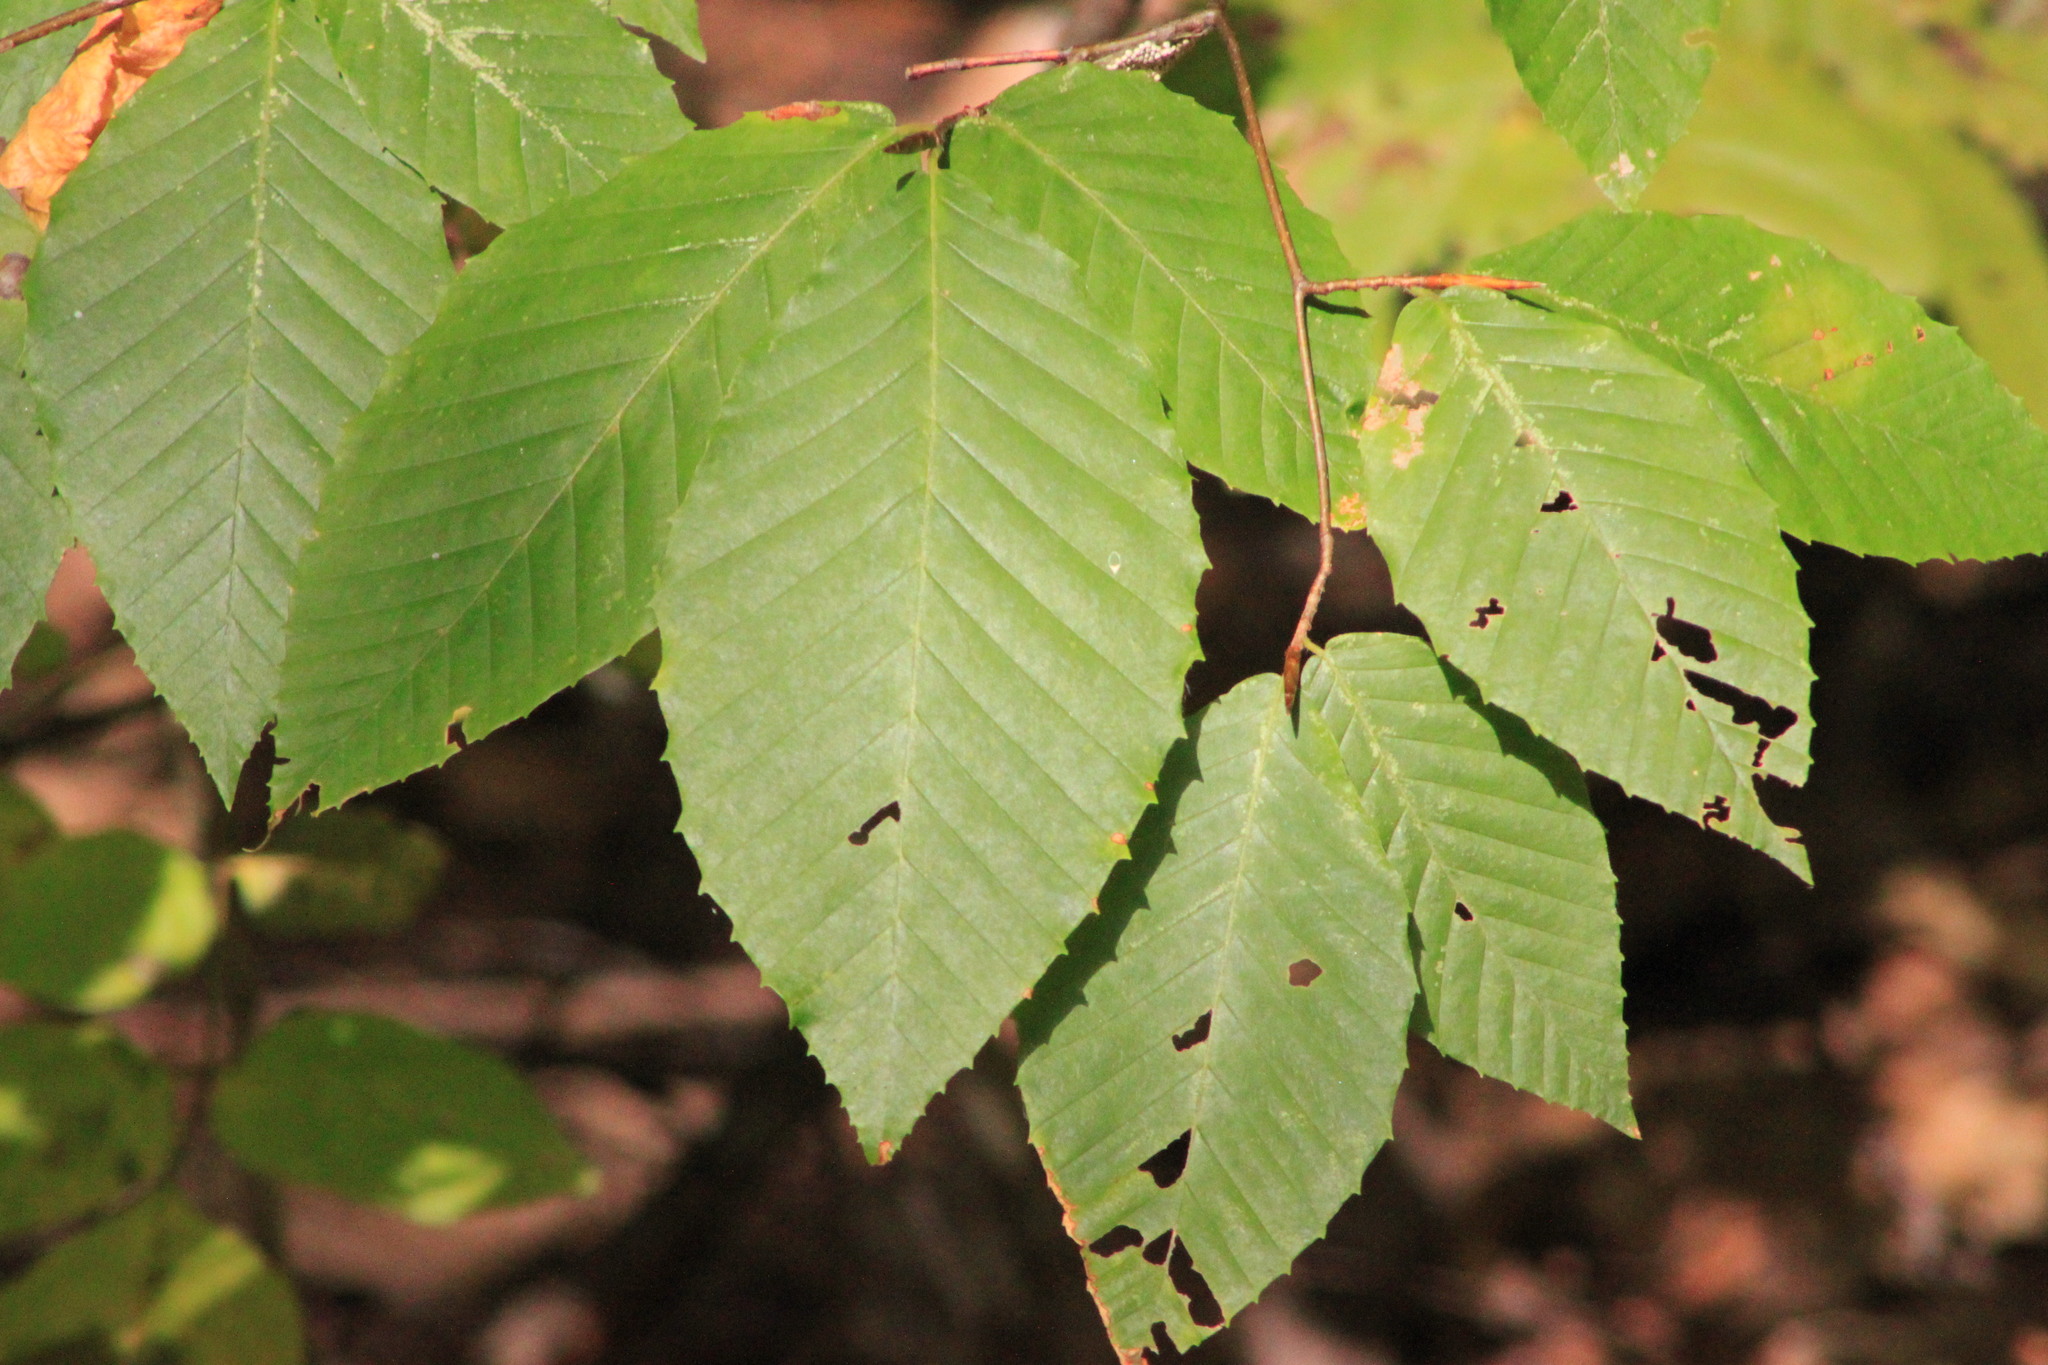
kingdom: Plantae
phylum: Tracheophyta
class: Magnoliopsida
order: Fagales
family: Fagaceae
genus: Fagus
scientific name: Fagus grandifolia
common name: American beech
